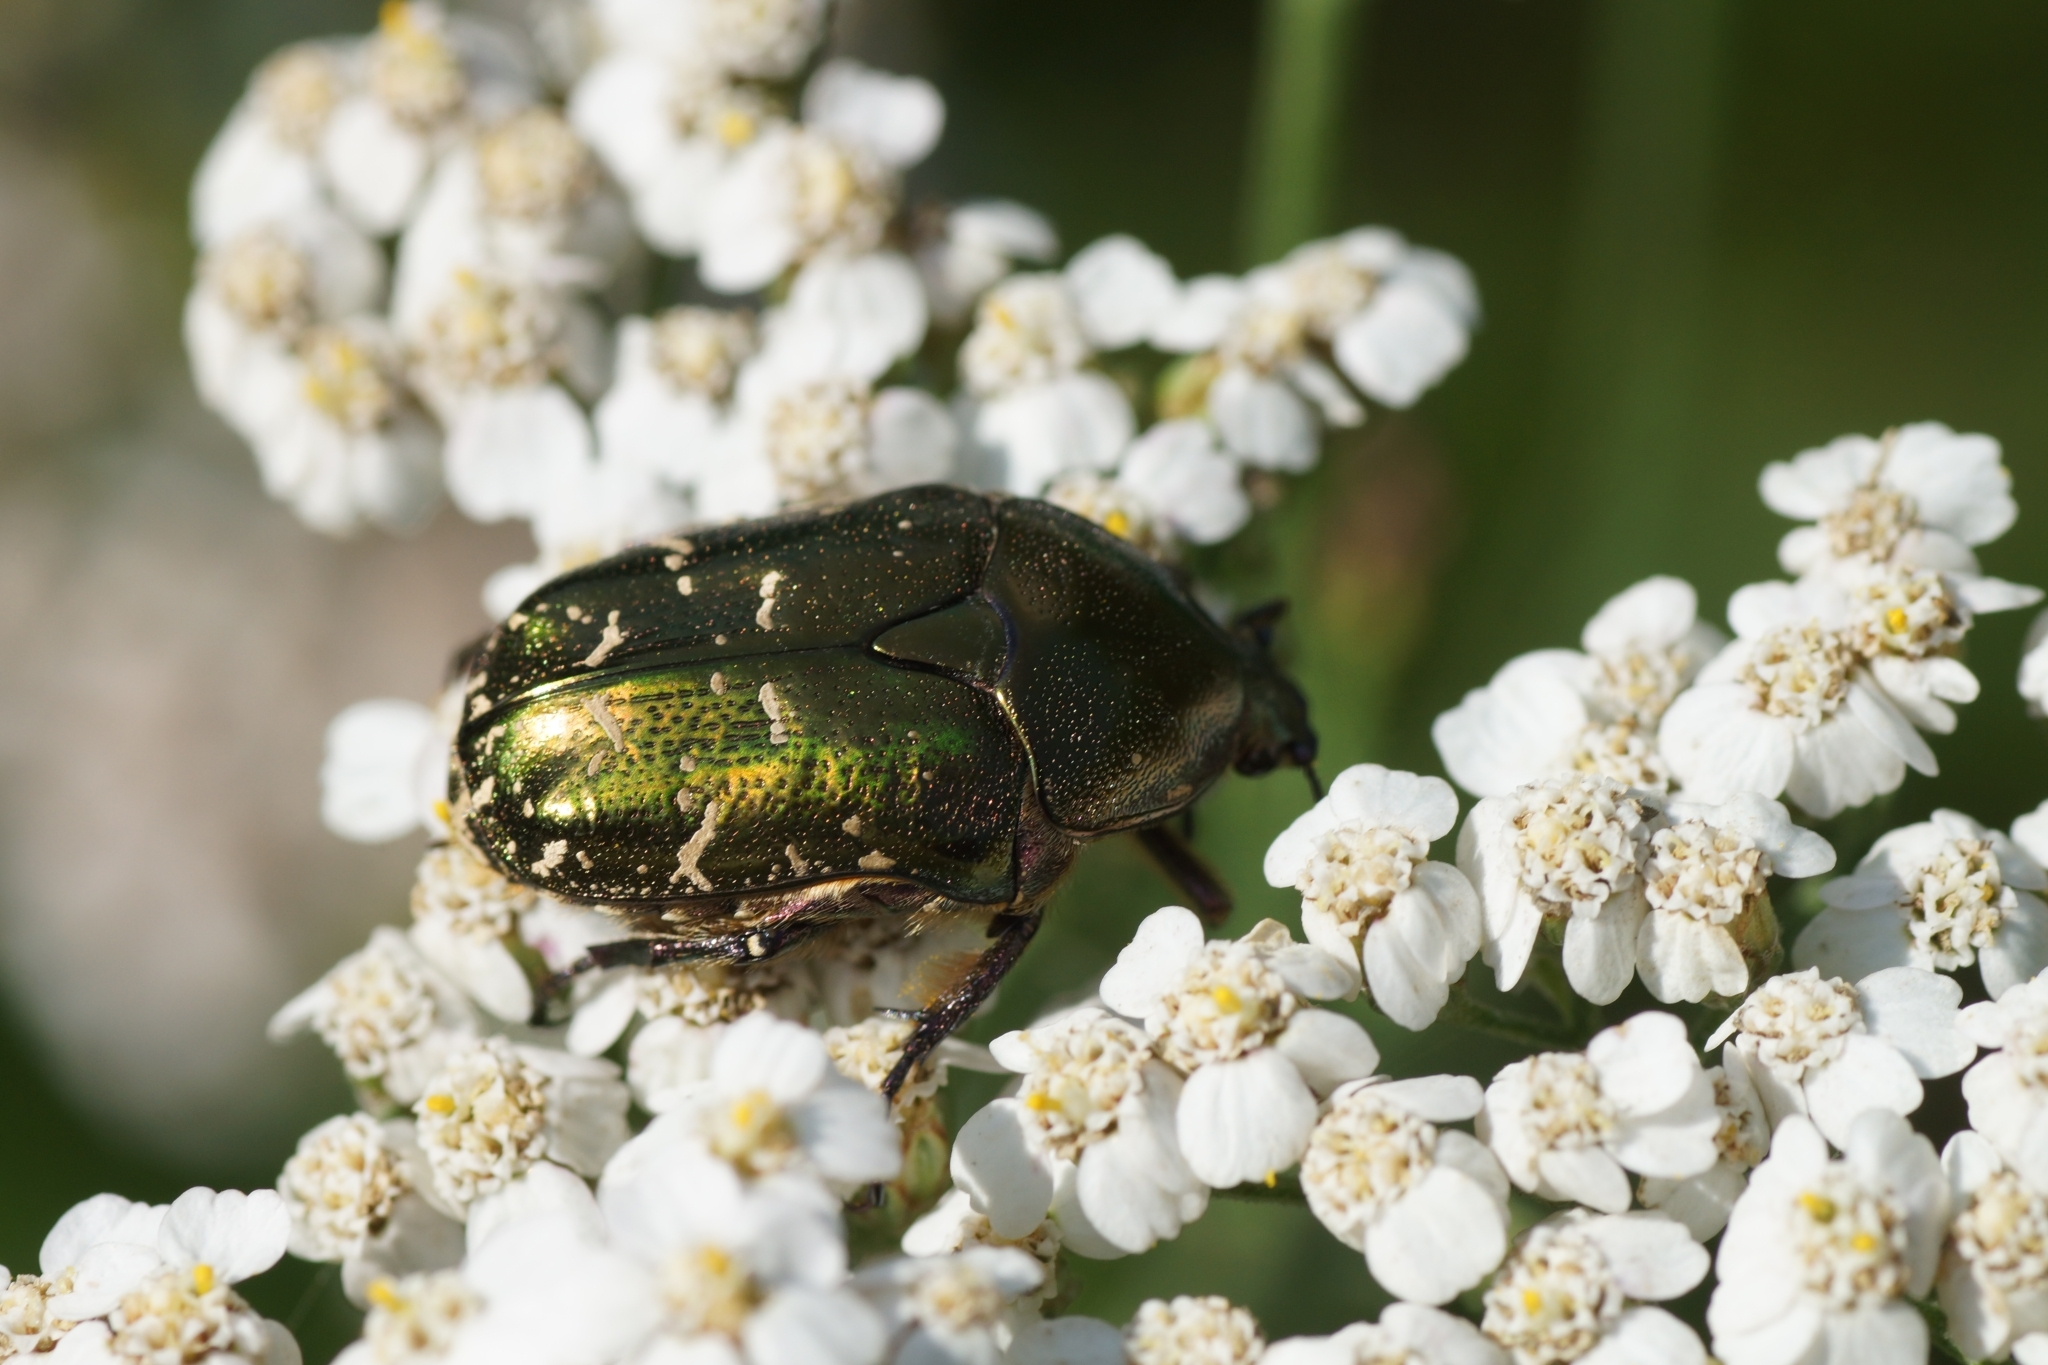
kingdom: Animalia
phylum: Arthropoda
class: Insecta
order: Coleoptera
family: Scarabaeidae
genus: Cetonia
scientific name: Cetonia aurata
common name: Rose chafer
